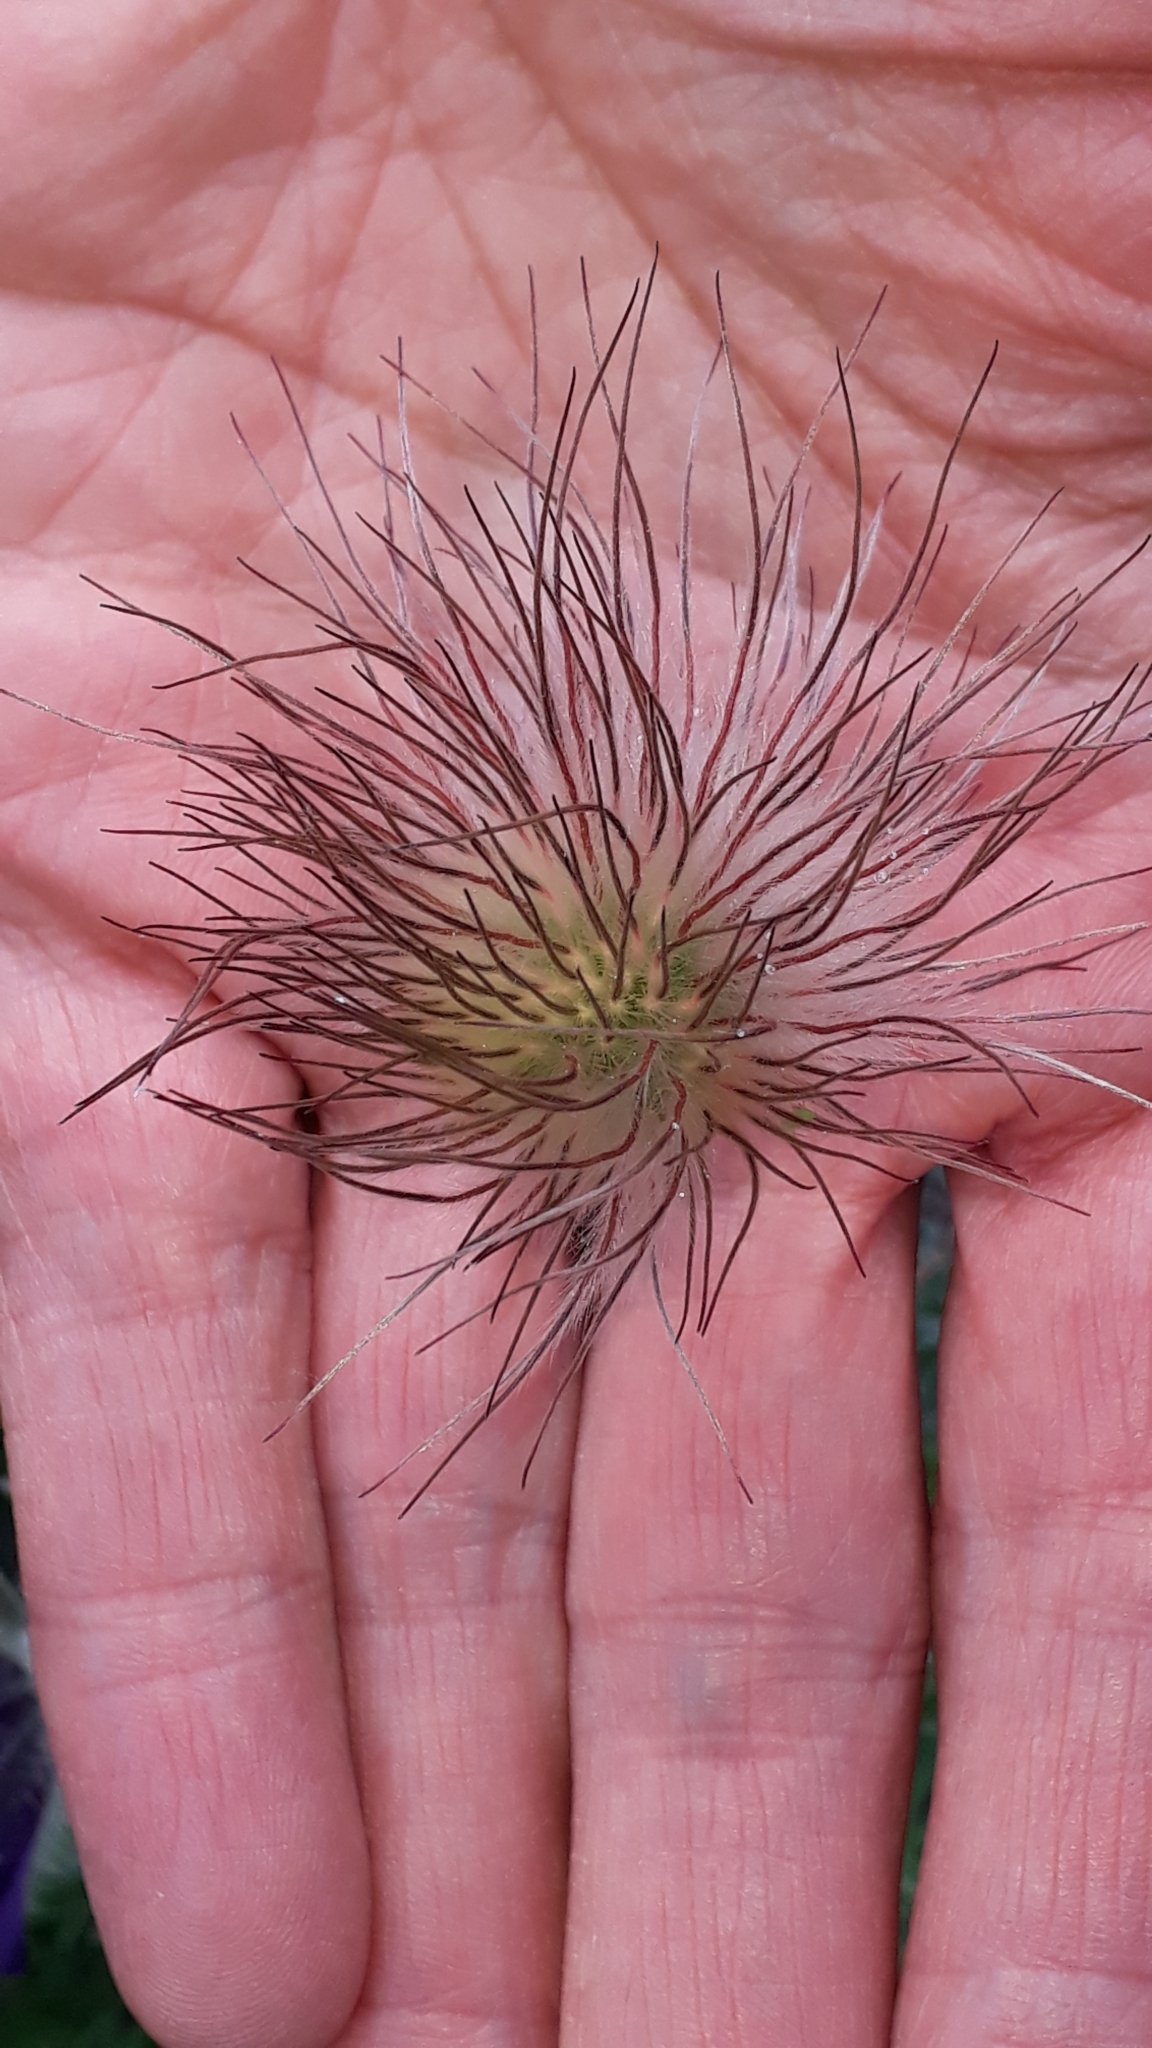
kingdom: Plantae
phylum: Tracheophyta
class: Magnoliopsida
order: Ranunculales
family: Ranunculaceae
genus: Pulsatilla
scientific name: Pulsatilla montana
